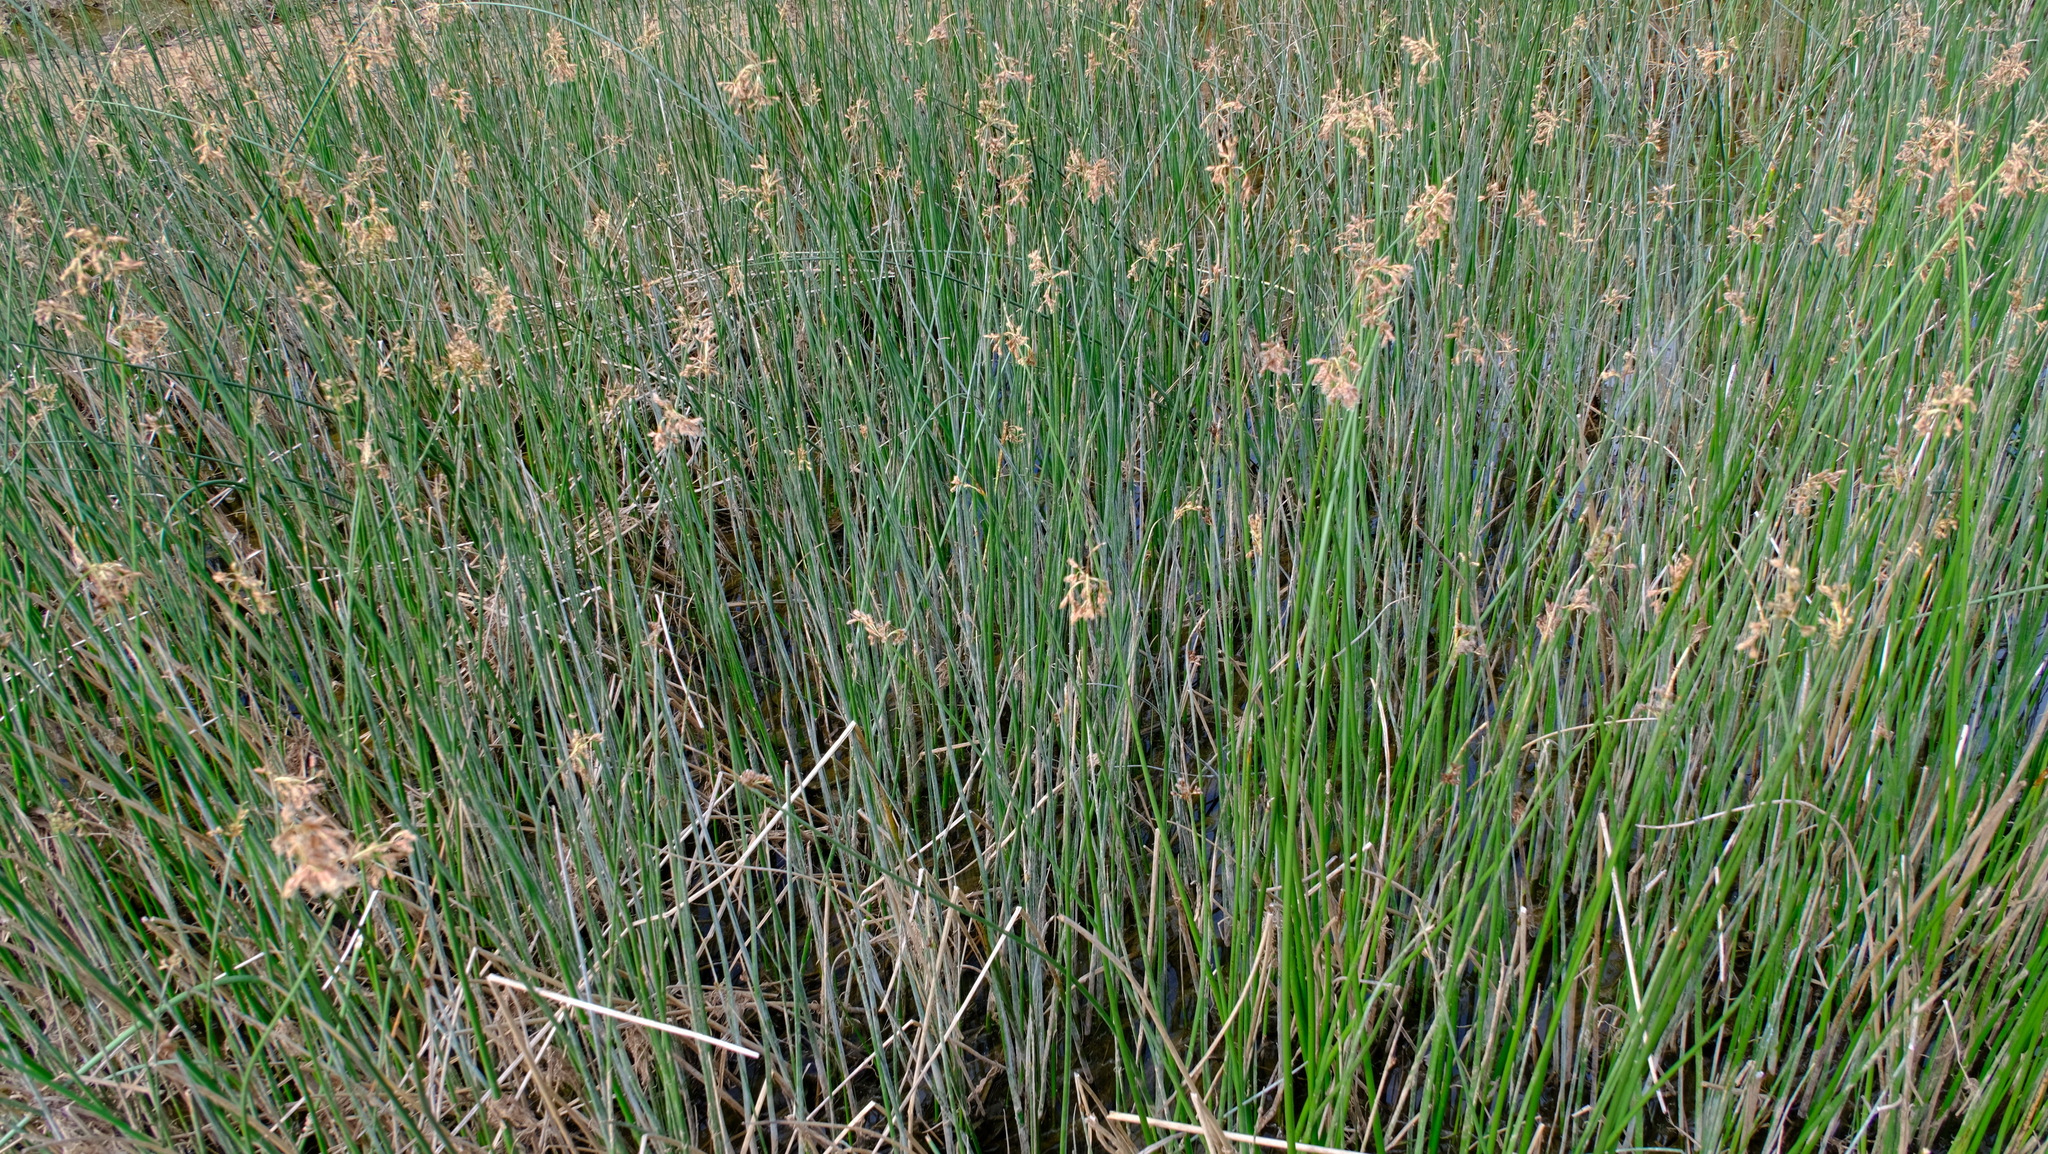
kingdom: Plantae
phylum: Tracheophyta
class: Liliopsida
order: Poales
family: Cyperaceae
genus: Schoenoplectus
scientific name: Schoenoplectus subulatus
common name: Coast club-rush
